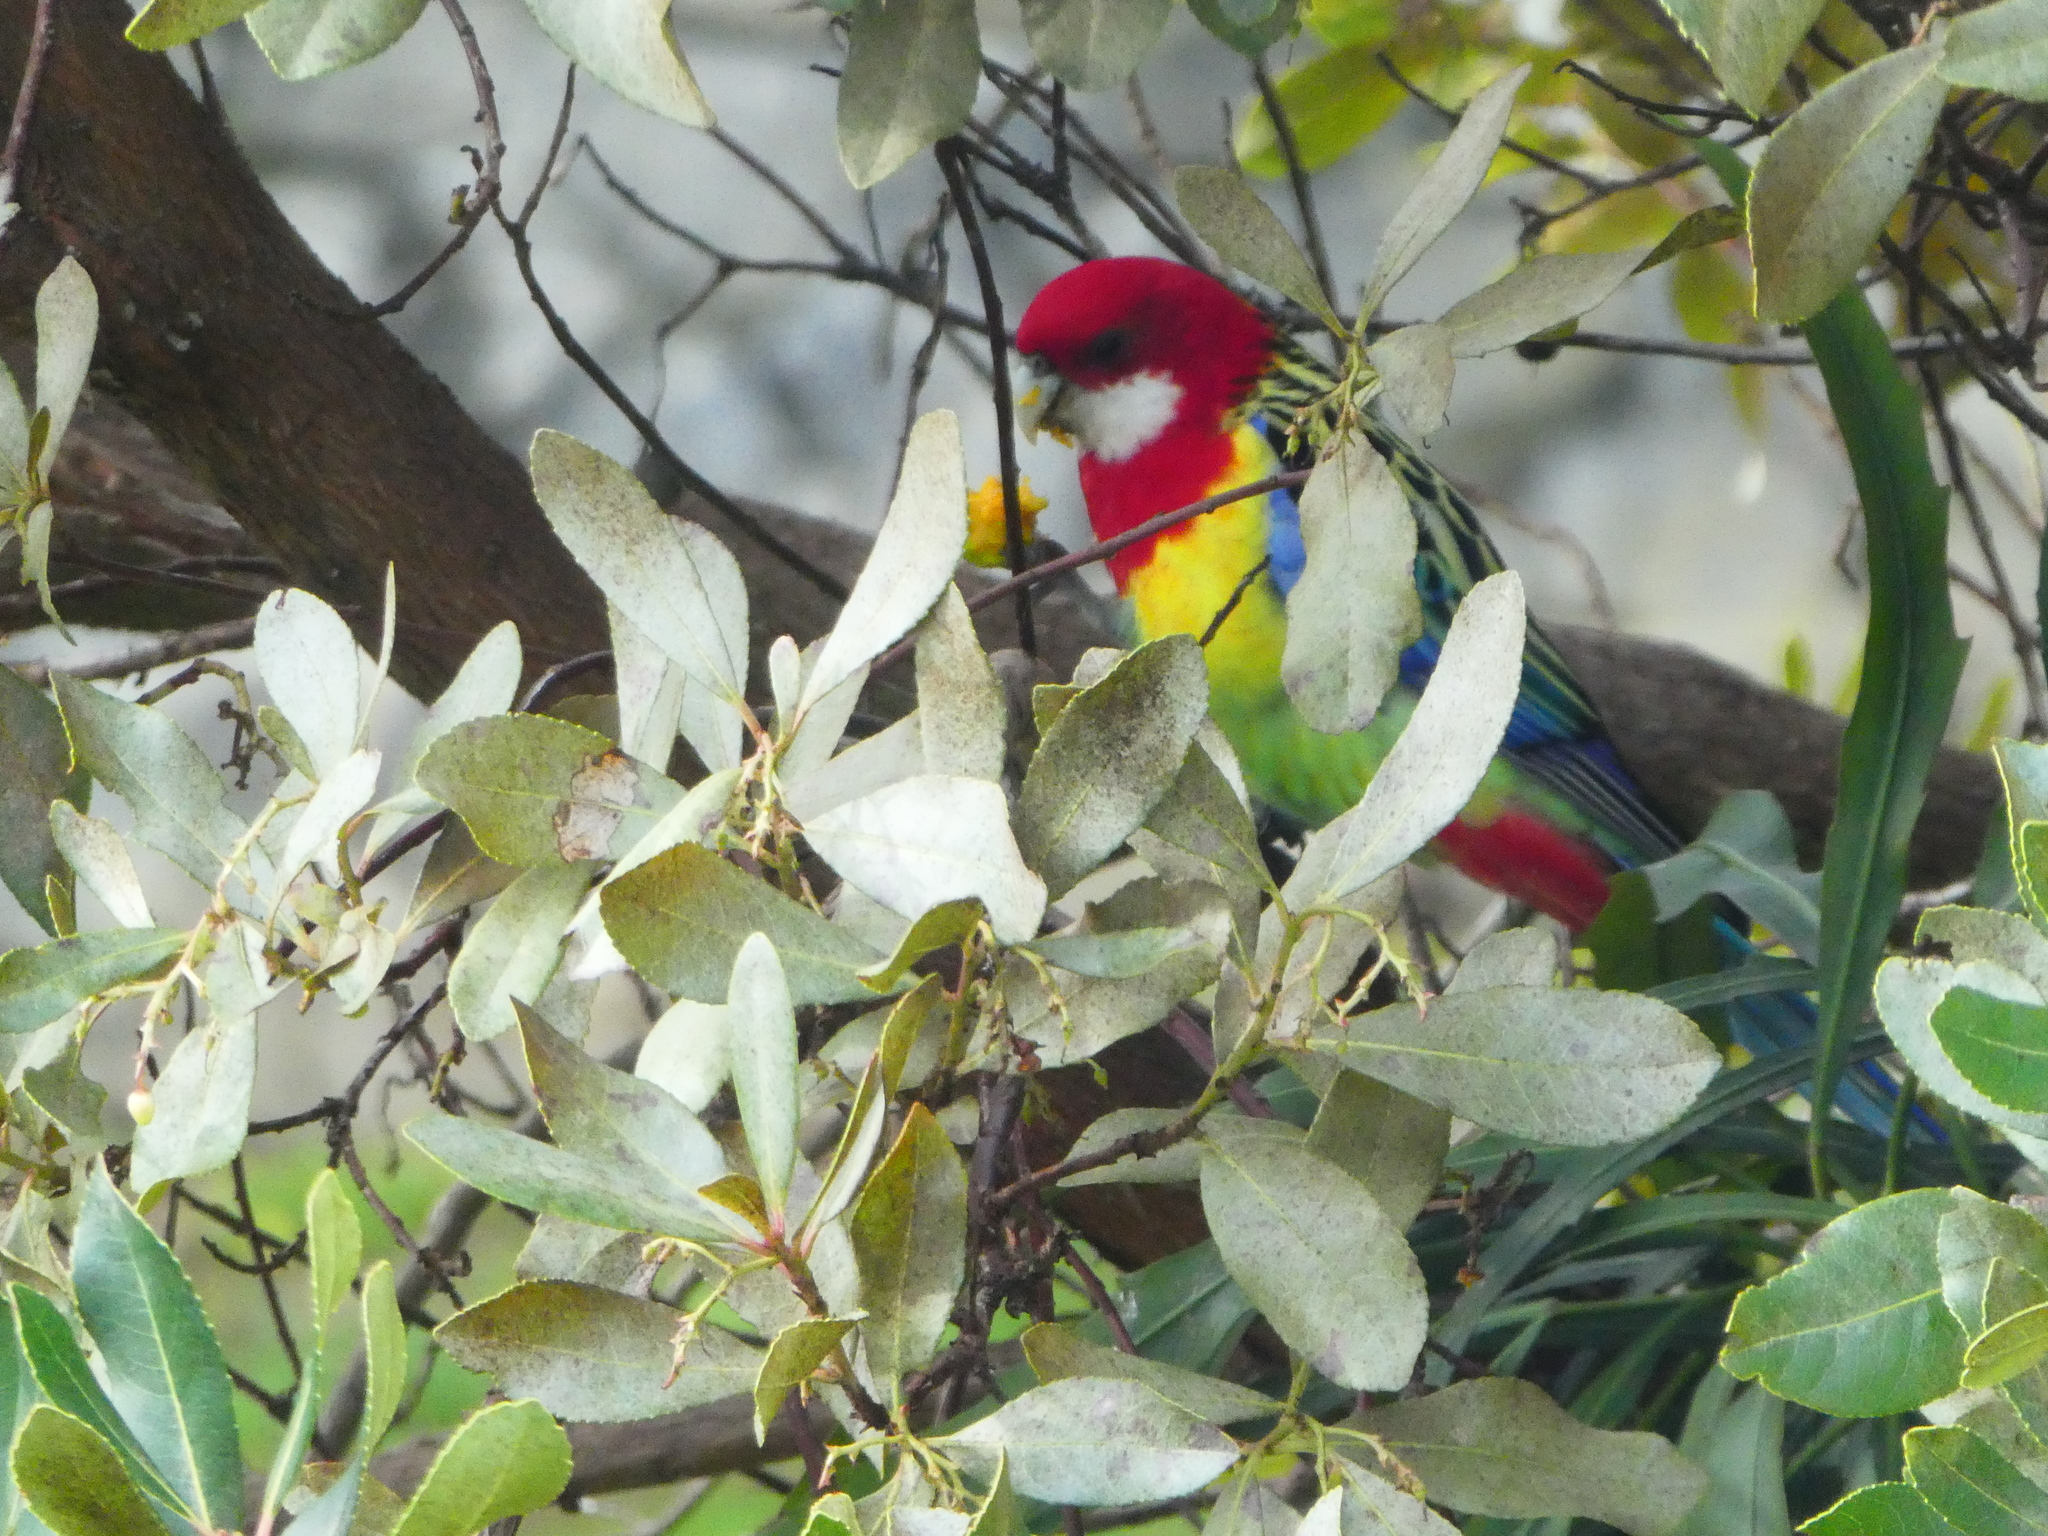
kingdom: Animalia
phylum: Chordata
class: Aves
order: Psittaciformes
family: Psittacidae
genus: Platycercus
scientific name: Platycercus eximius
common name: Eastern rosella
